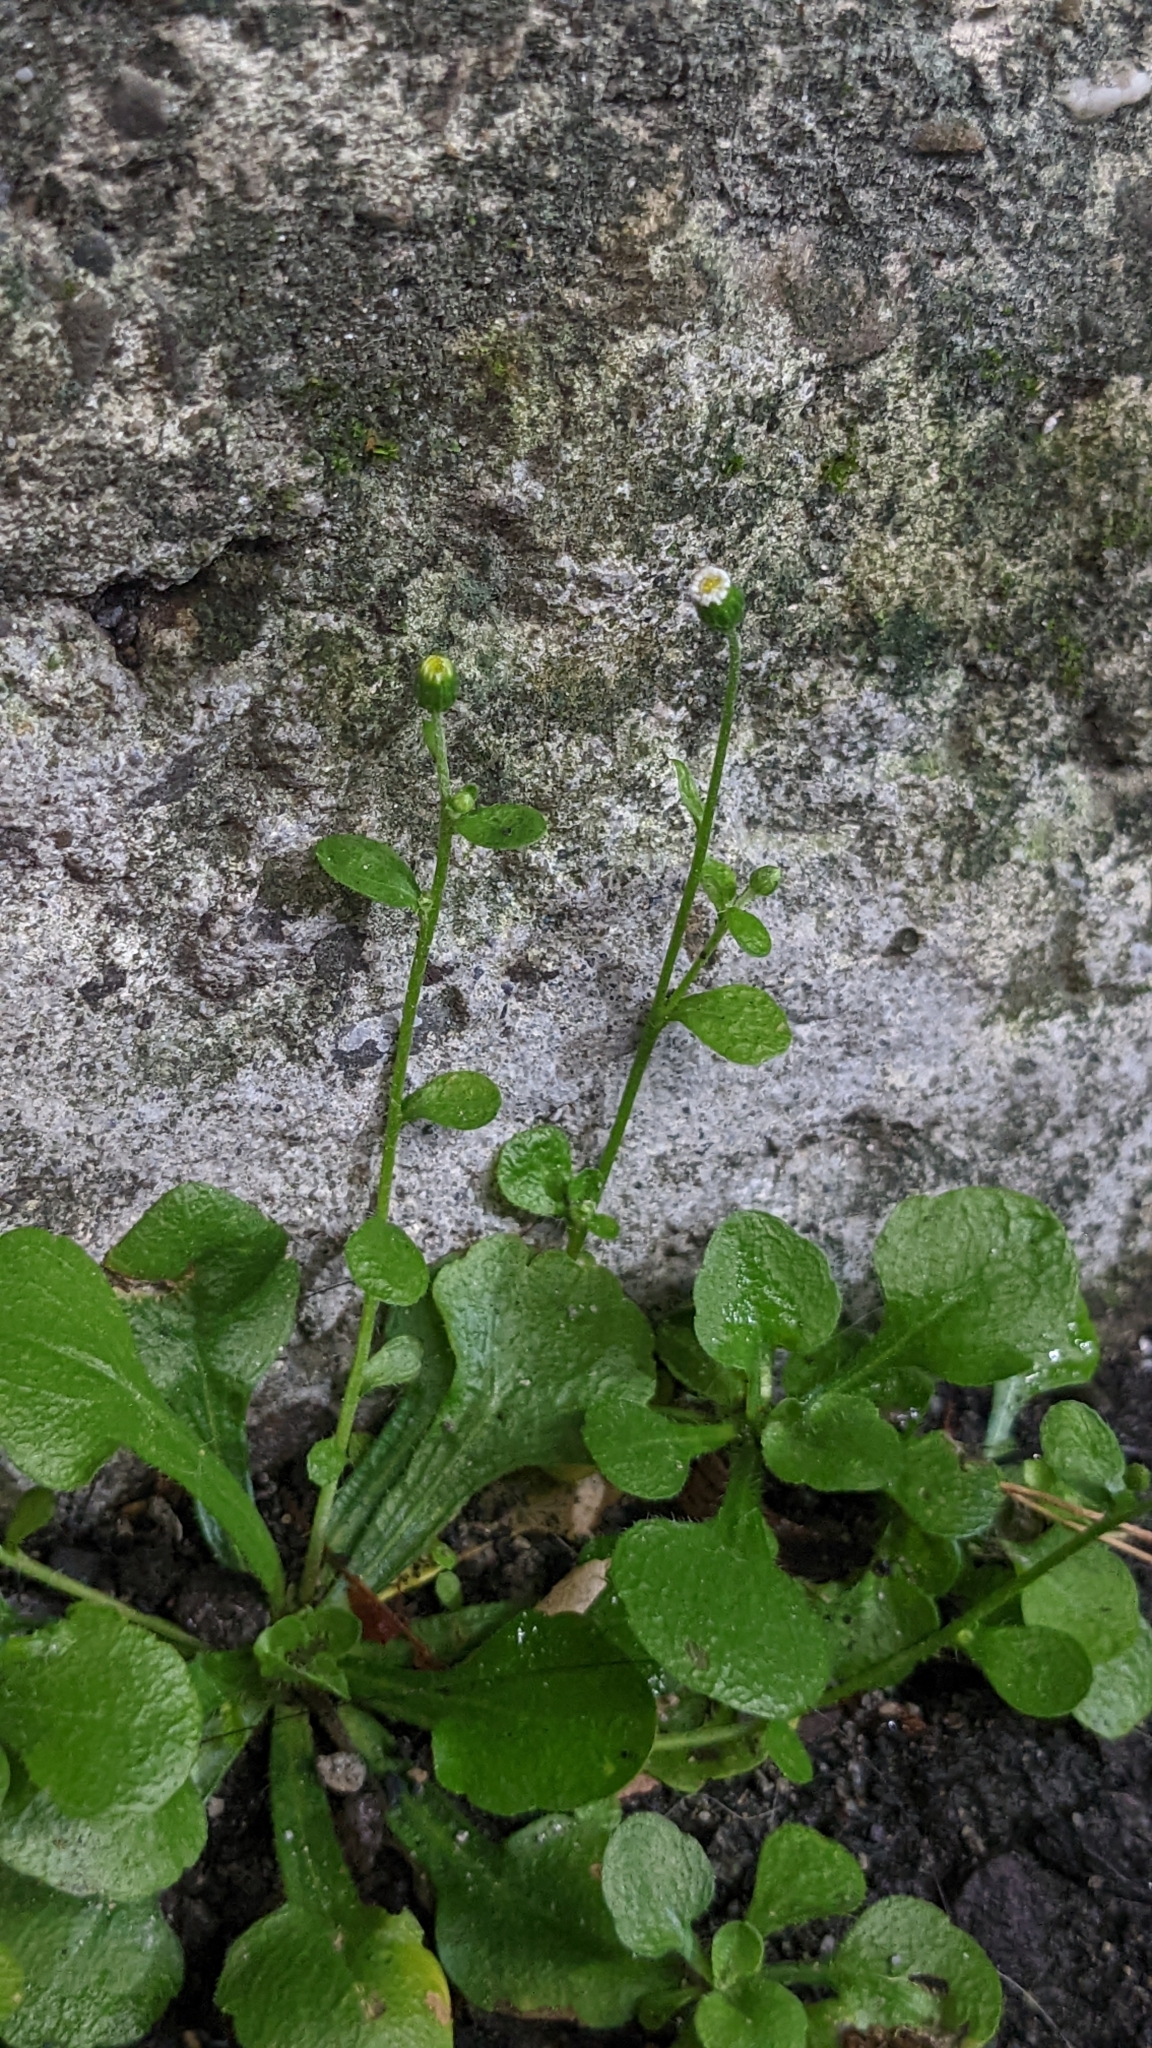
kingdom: Plantae
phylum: Tracheophyta
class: Magnoliopsida
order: Asterales
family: Asteraceae
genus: Erigeron
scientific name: Erigeron bellioides
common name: Bellorita
